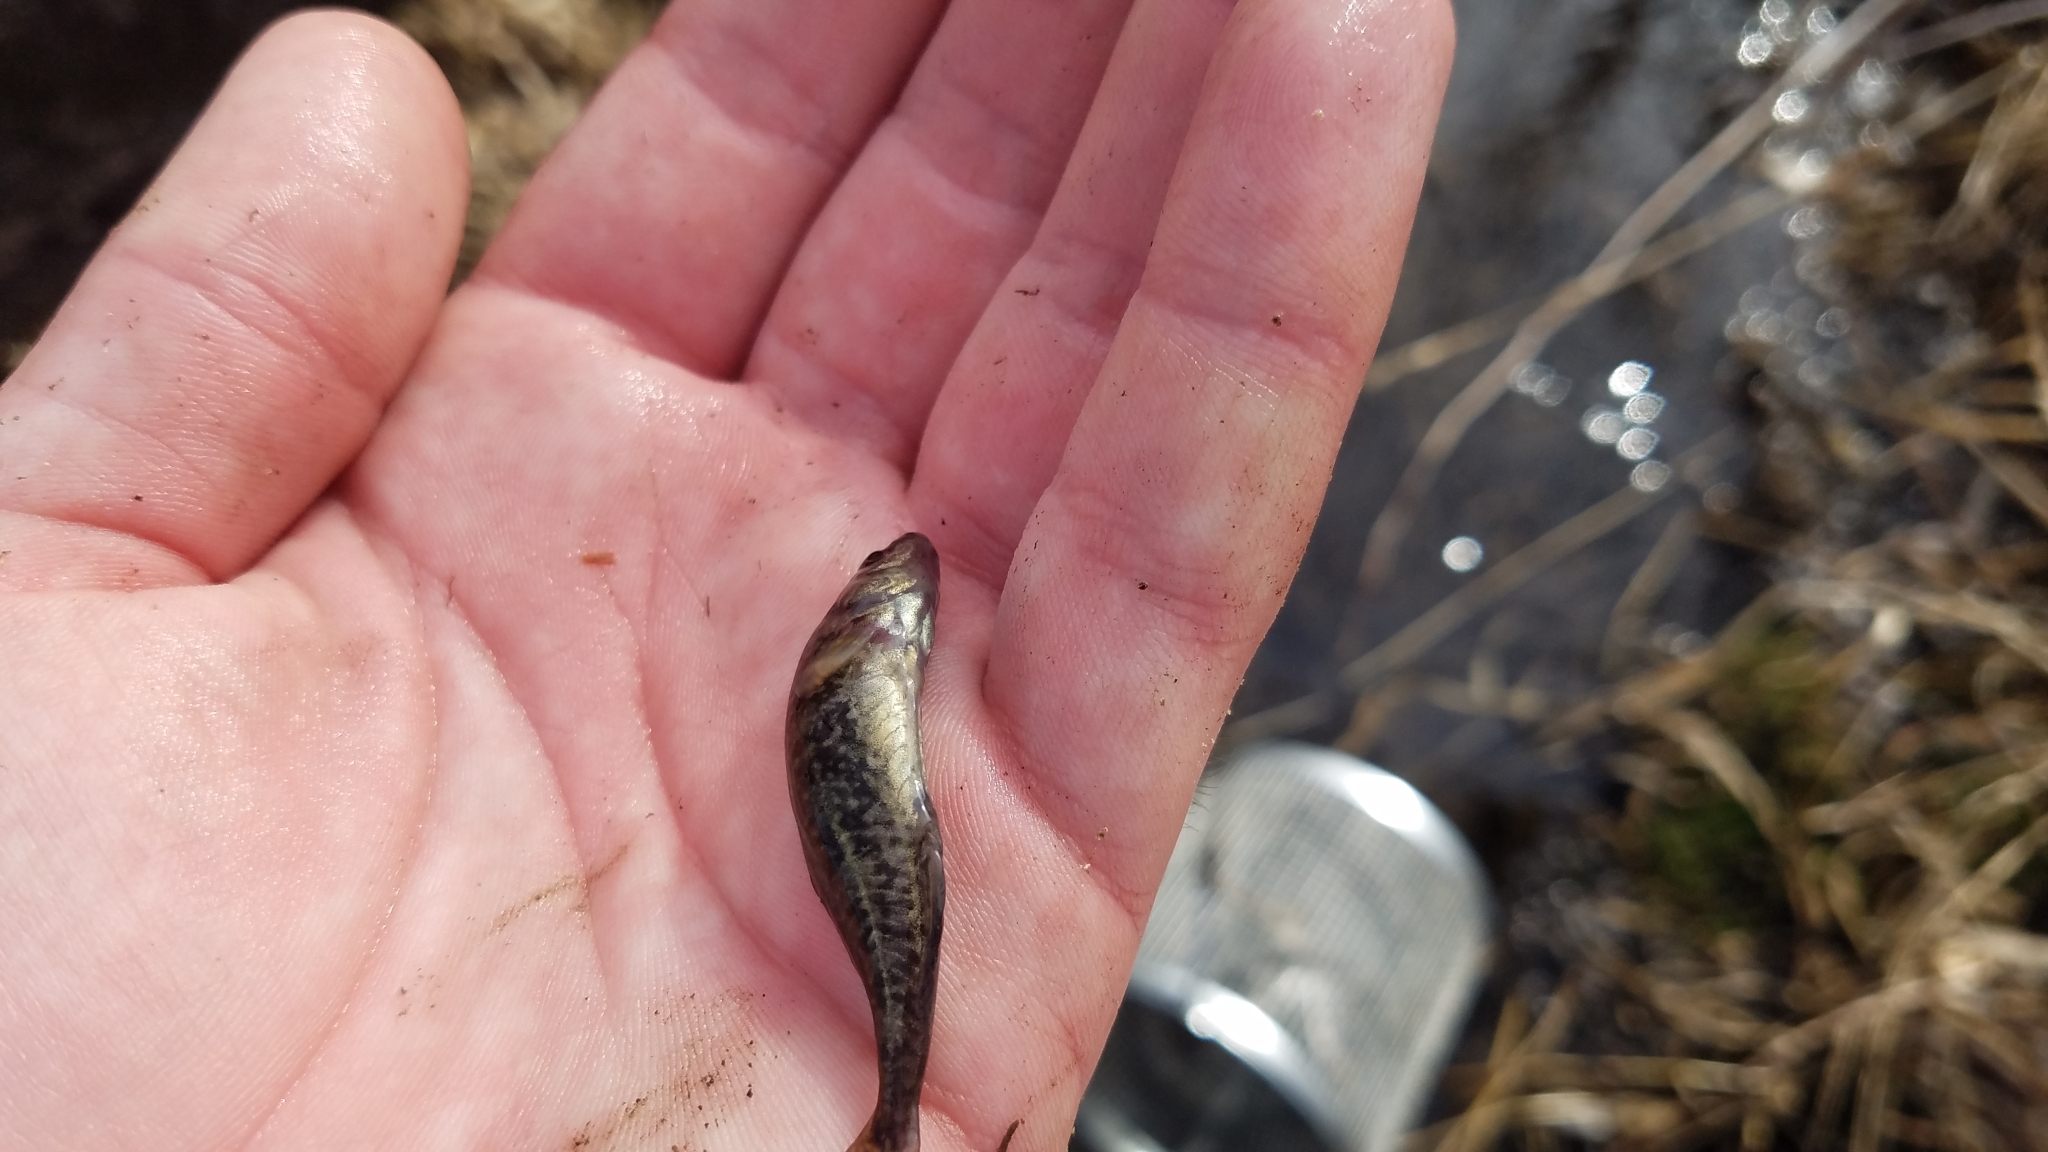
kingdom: Animalia
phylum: Chordata
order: Gasterosteiformes
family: Gasterosteidae
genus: Culaea
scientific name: Culaea inconstans
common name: Brook stickleback
